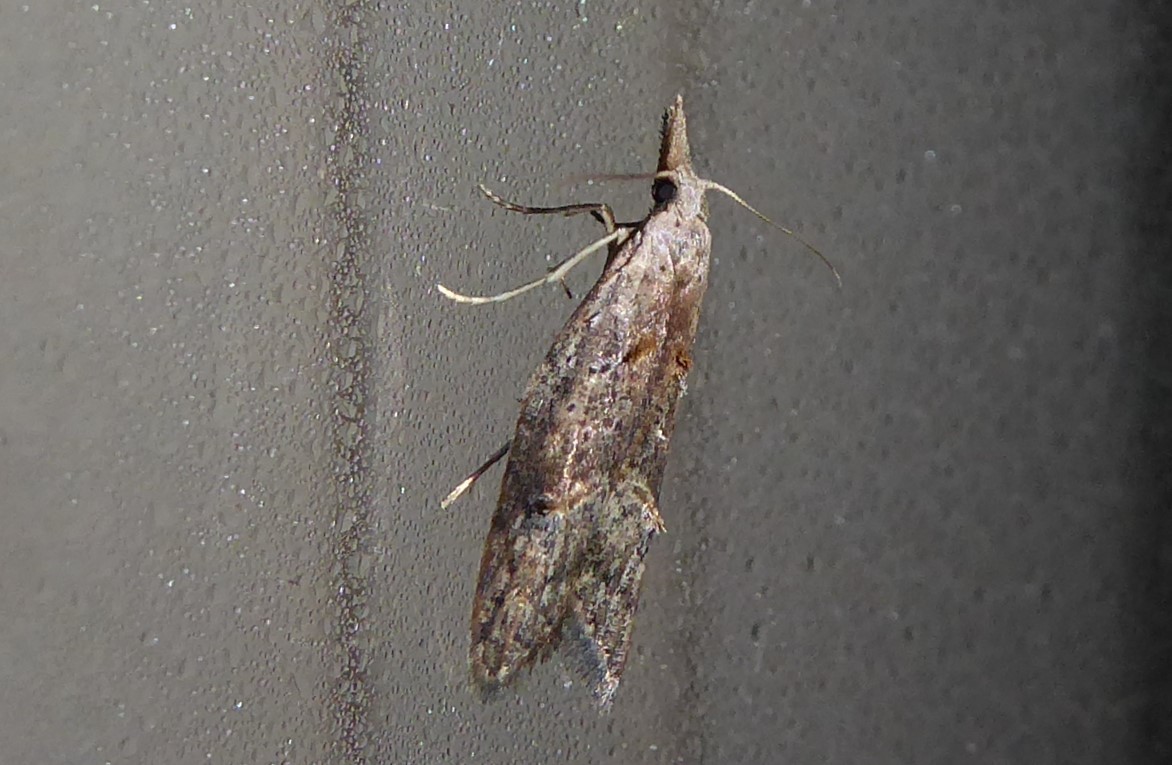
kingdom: Animalia
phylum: Arthropoda
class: Insecta
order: Lepidoptera
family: Carposinidae
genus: Carposina
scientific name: Carposina rubophaga
